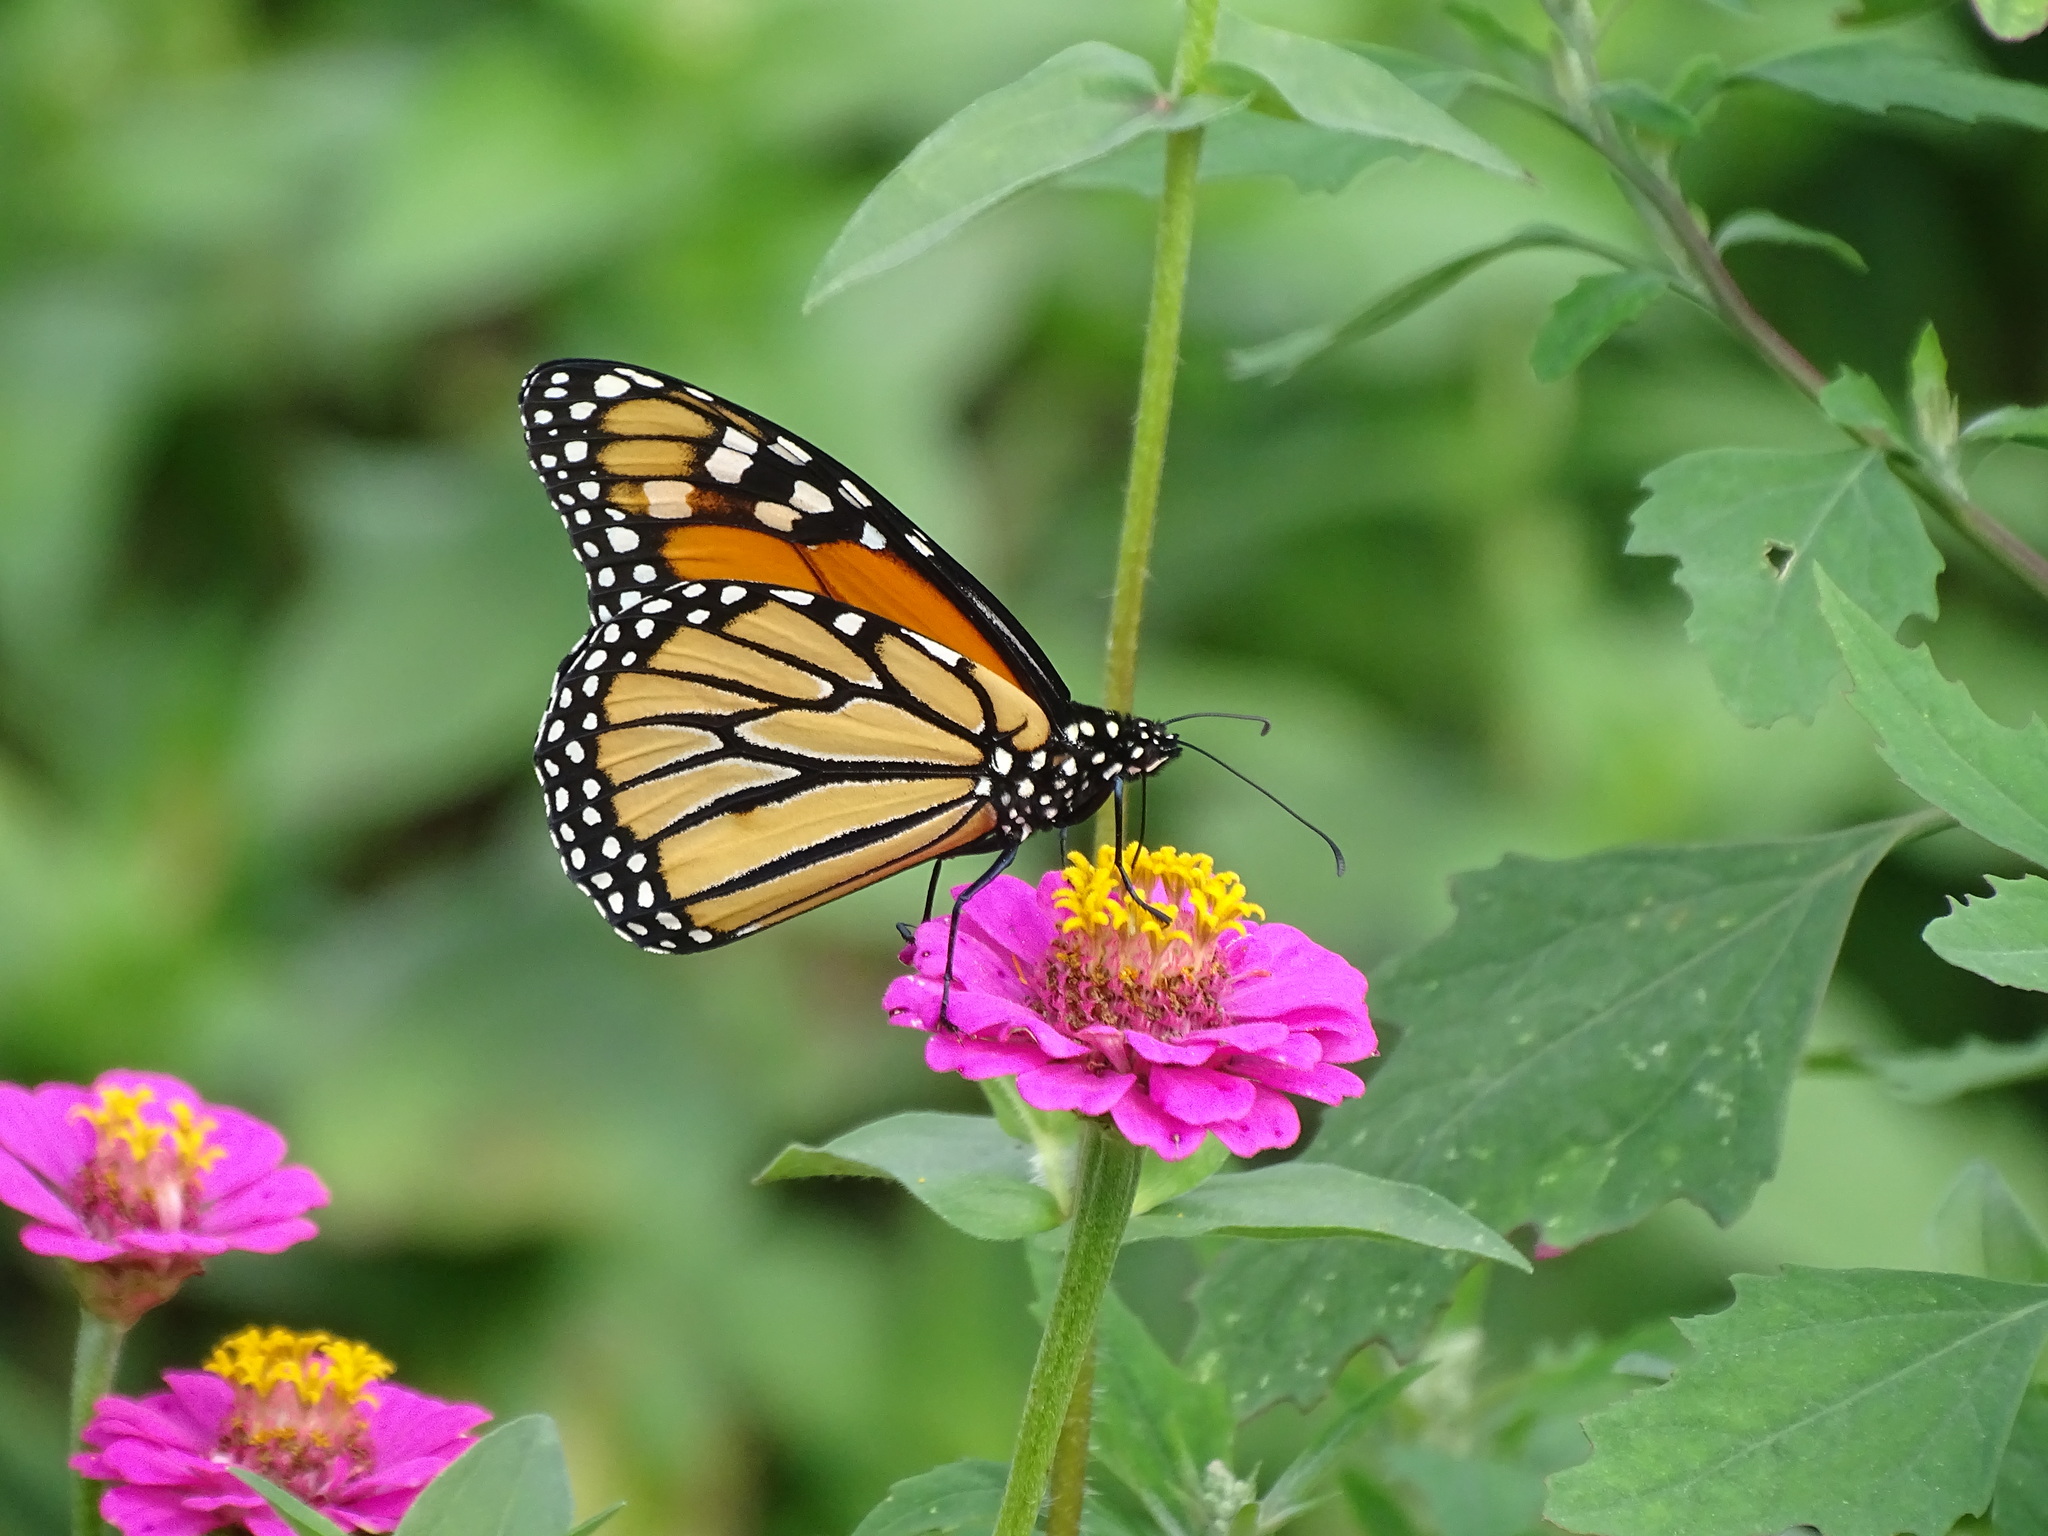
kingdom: Animalia
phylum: Arthropoda
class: Insecta
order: Lepidoptera
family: Nymphalidae
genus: Danaus
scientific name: Danaus plexippus
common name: Monarch
